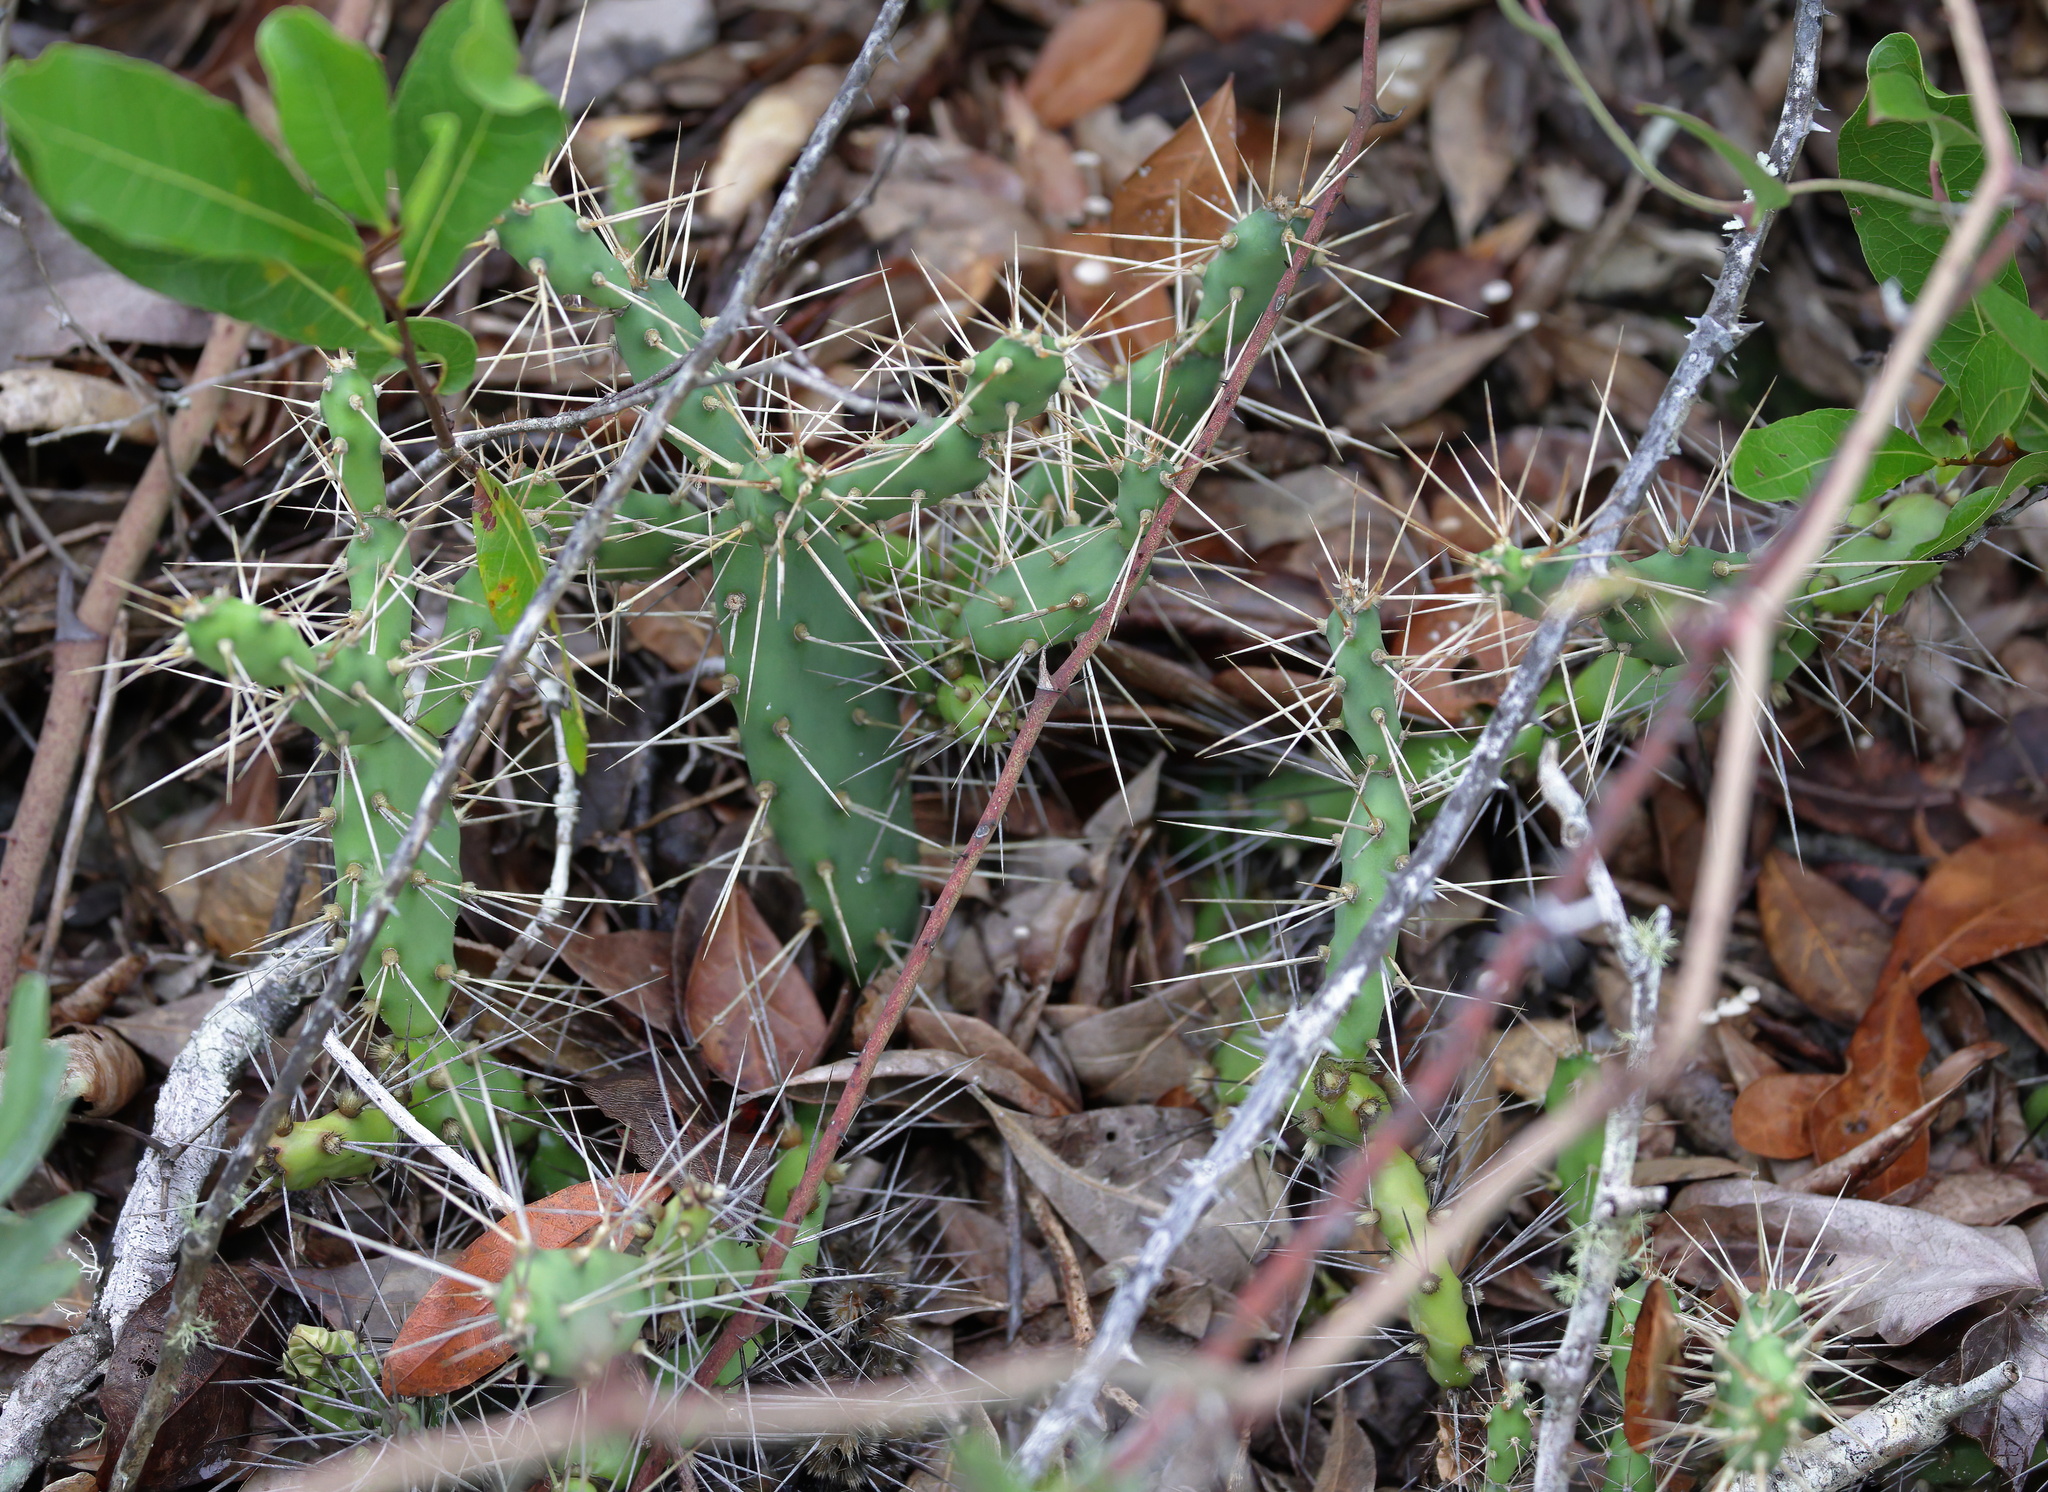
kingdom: Plantae
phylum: Tracheophyta
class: Magnoliopsida
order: Caryophyllales
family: Cactaceae
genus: Opuntia
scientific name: Opuntia drummondii
